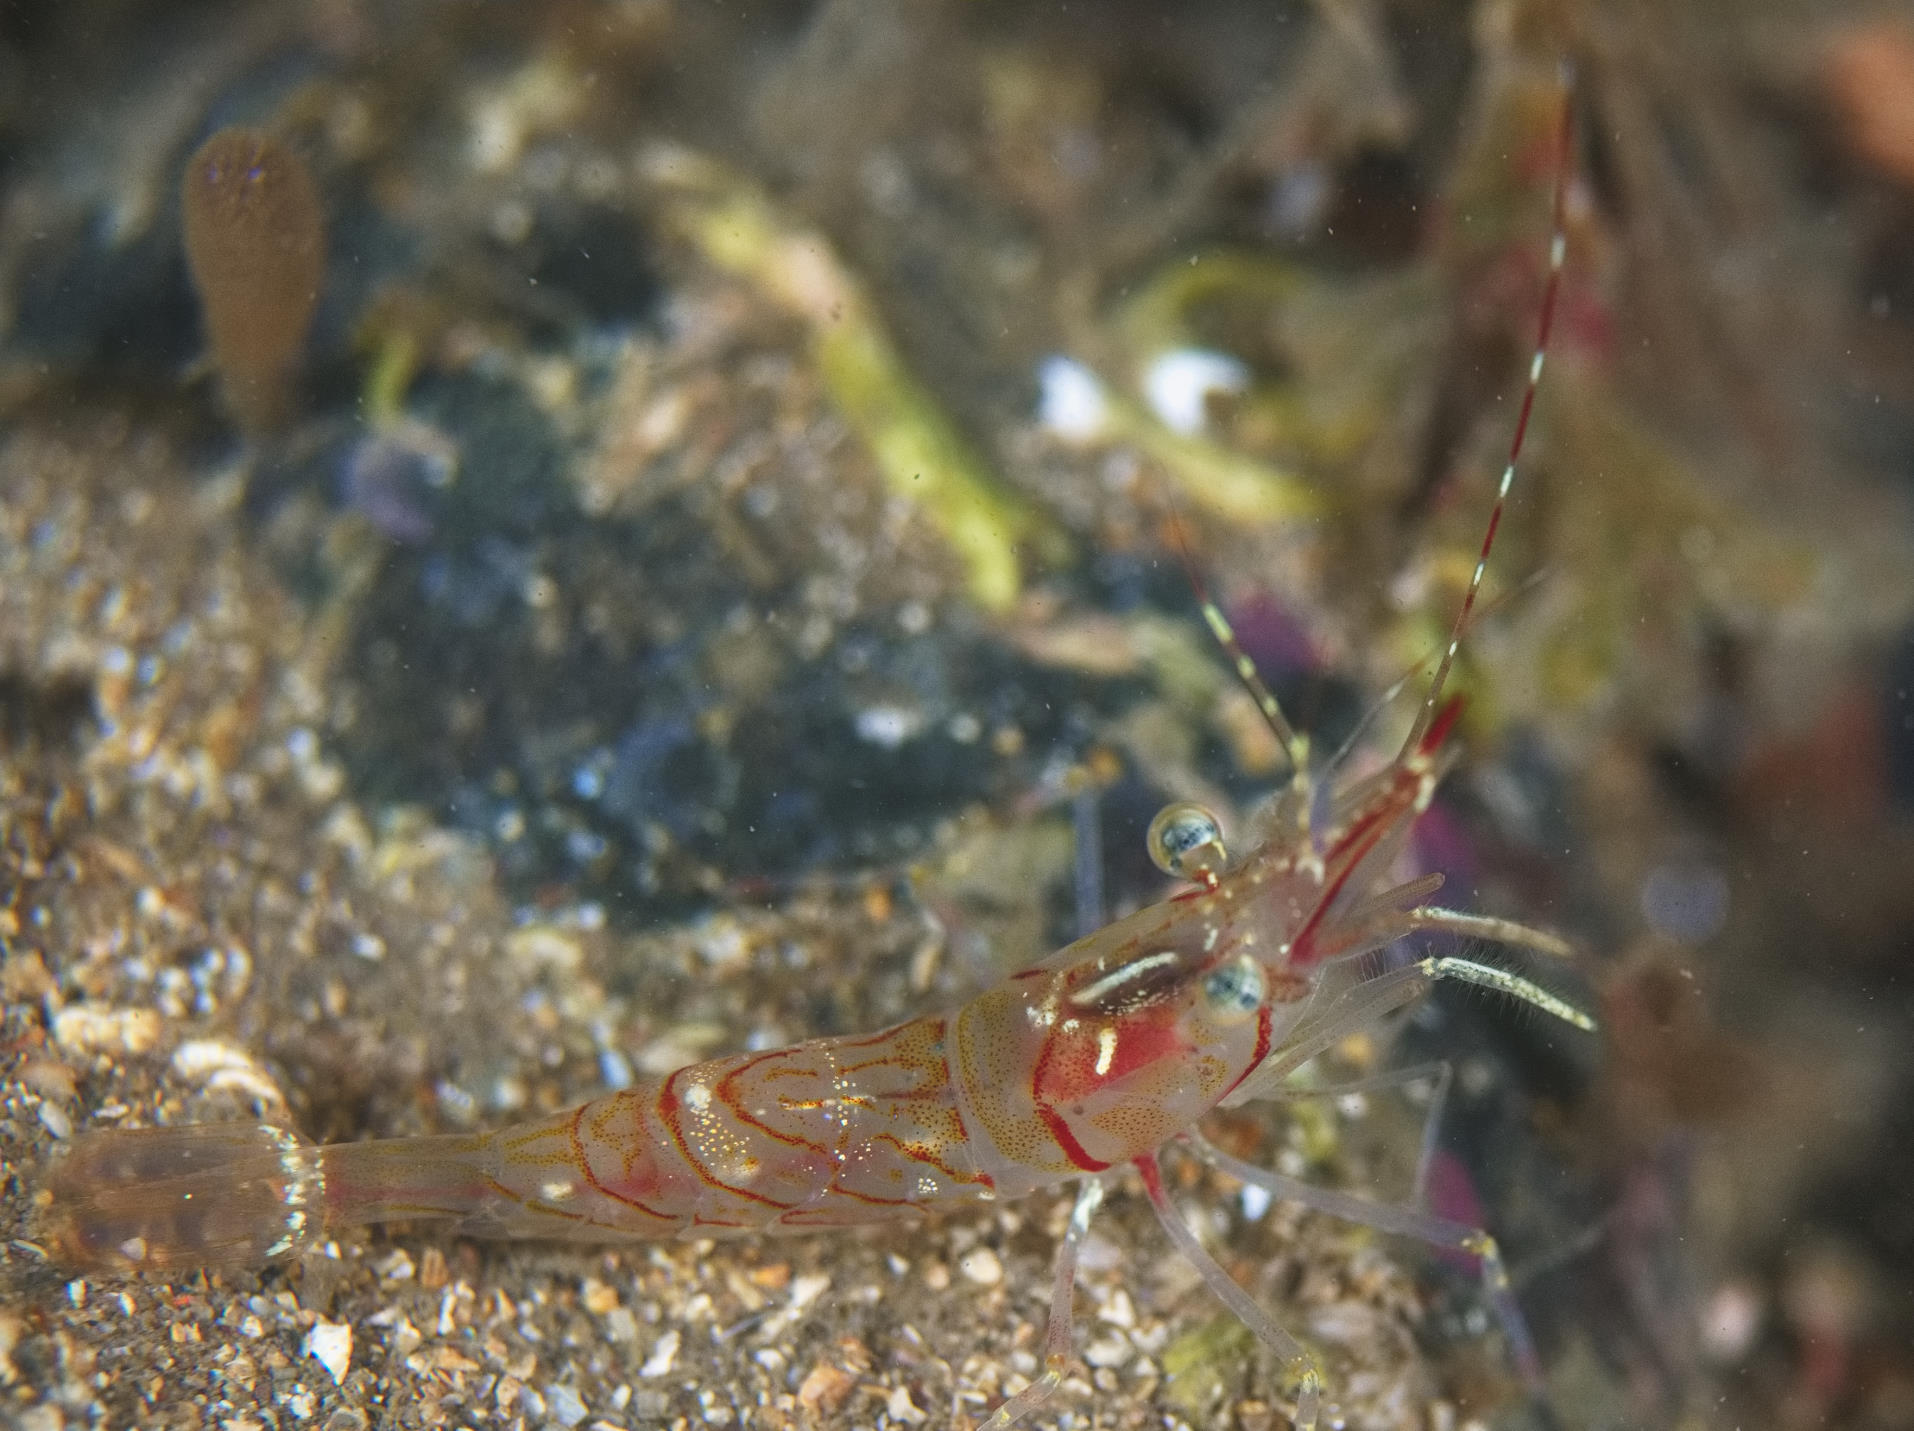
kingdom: Animalia
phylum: Arthropoda
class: Malacostraca
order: Decapoda
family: Pandalidae
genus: Pandalus
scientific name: Pandalus montagui
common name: Pink shrimp
